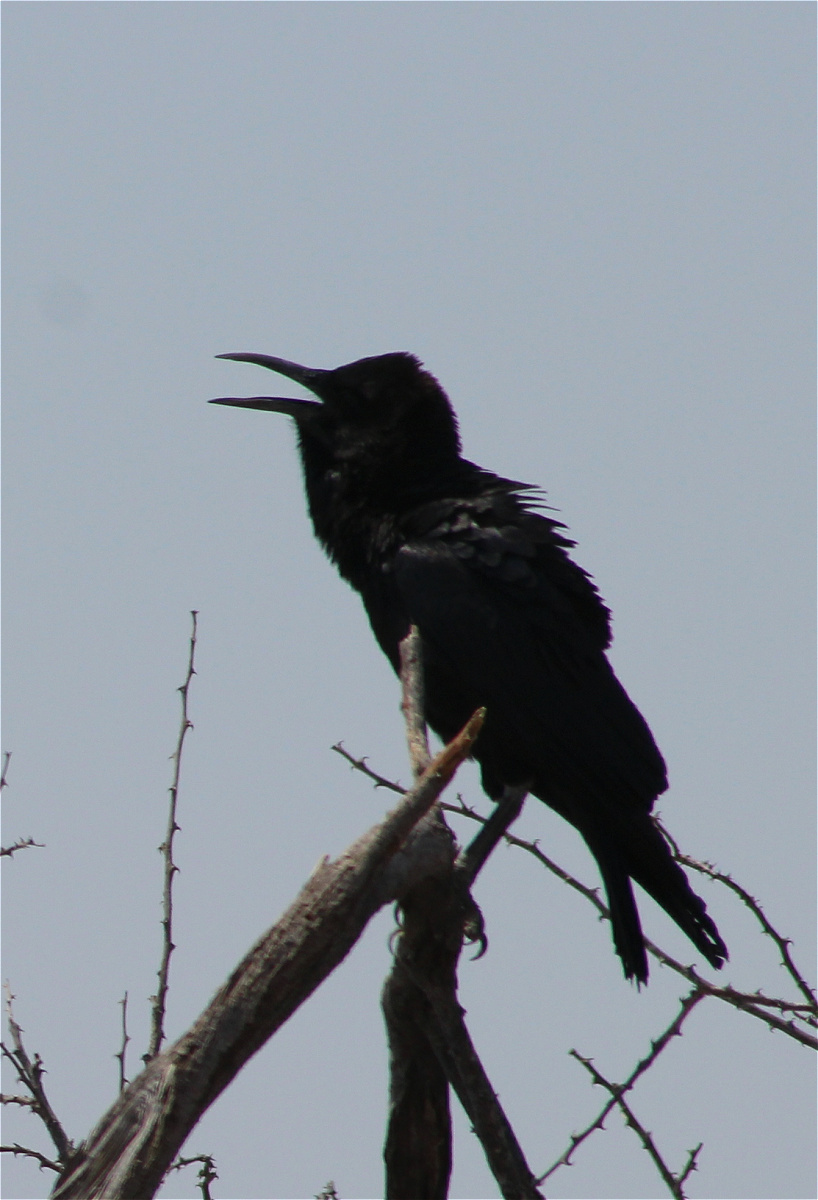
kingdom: Animalia
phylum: Chordata
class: Aves
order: Passeriformes
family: Corvidae
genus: Corvus
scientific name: Corvus capensis
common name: Cape crow
